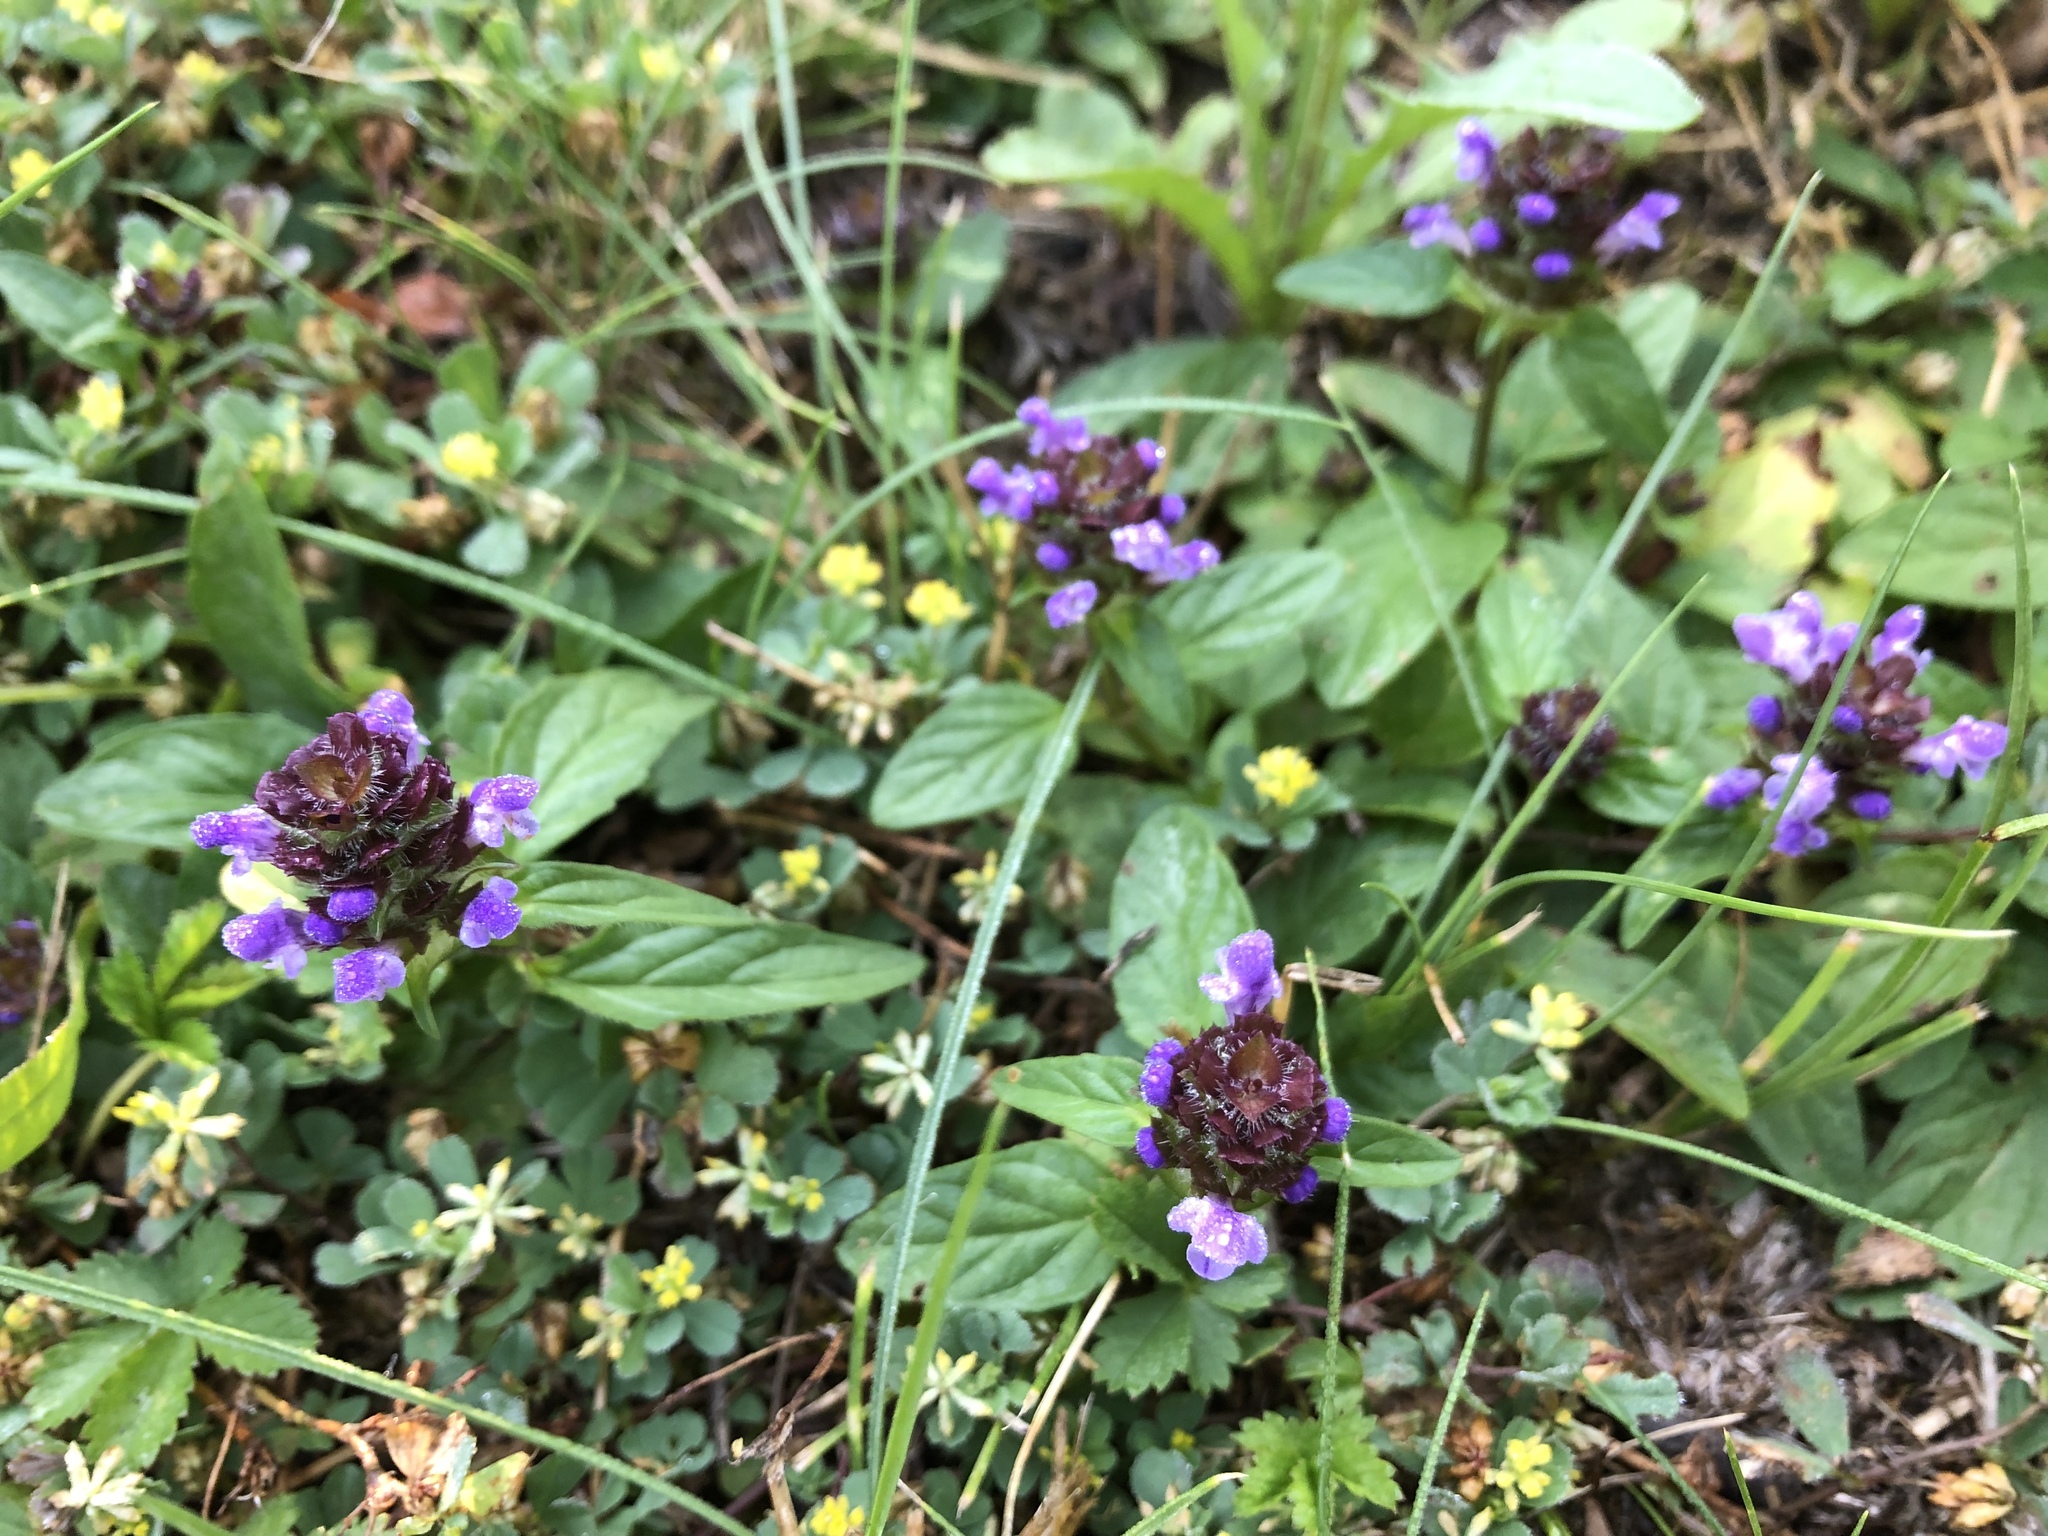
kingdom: Plantae
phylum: Tracheophyta
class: Magnoliopsida
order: Lamiales
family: Lamiaceae
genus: Prunella
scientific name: Prunella vulgaris
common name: Heal-all
